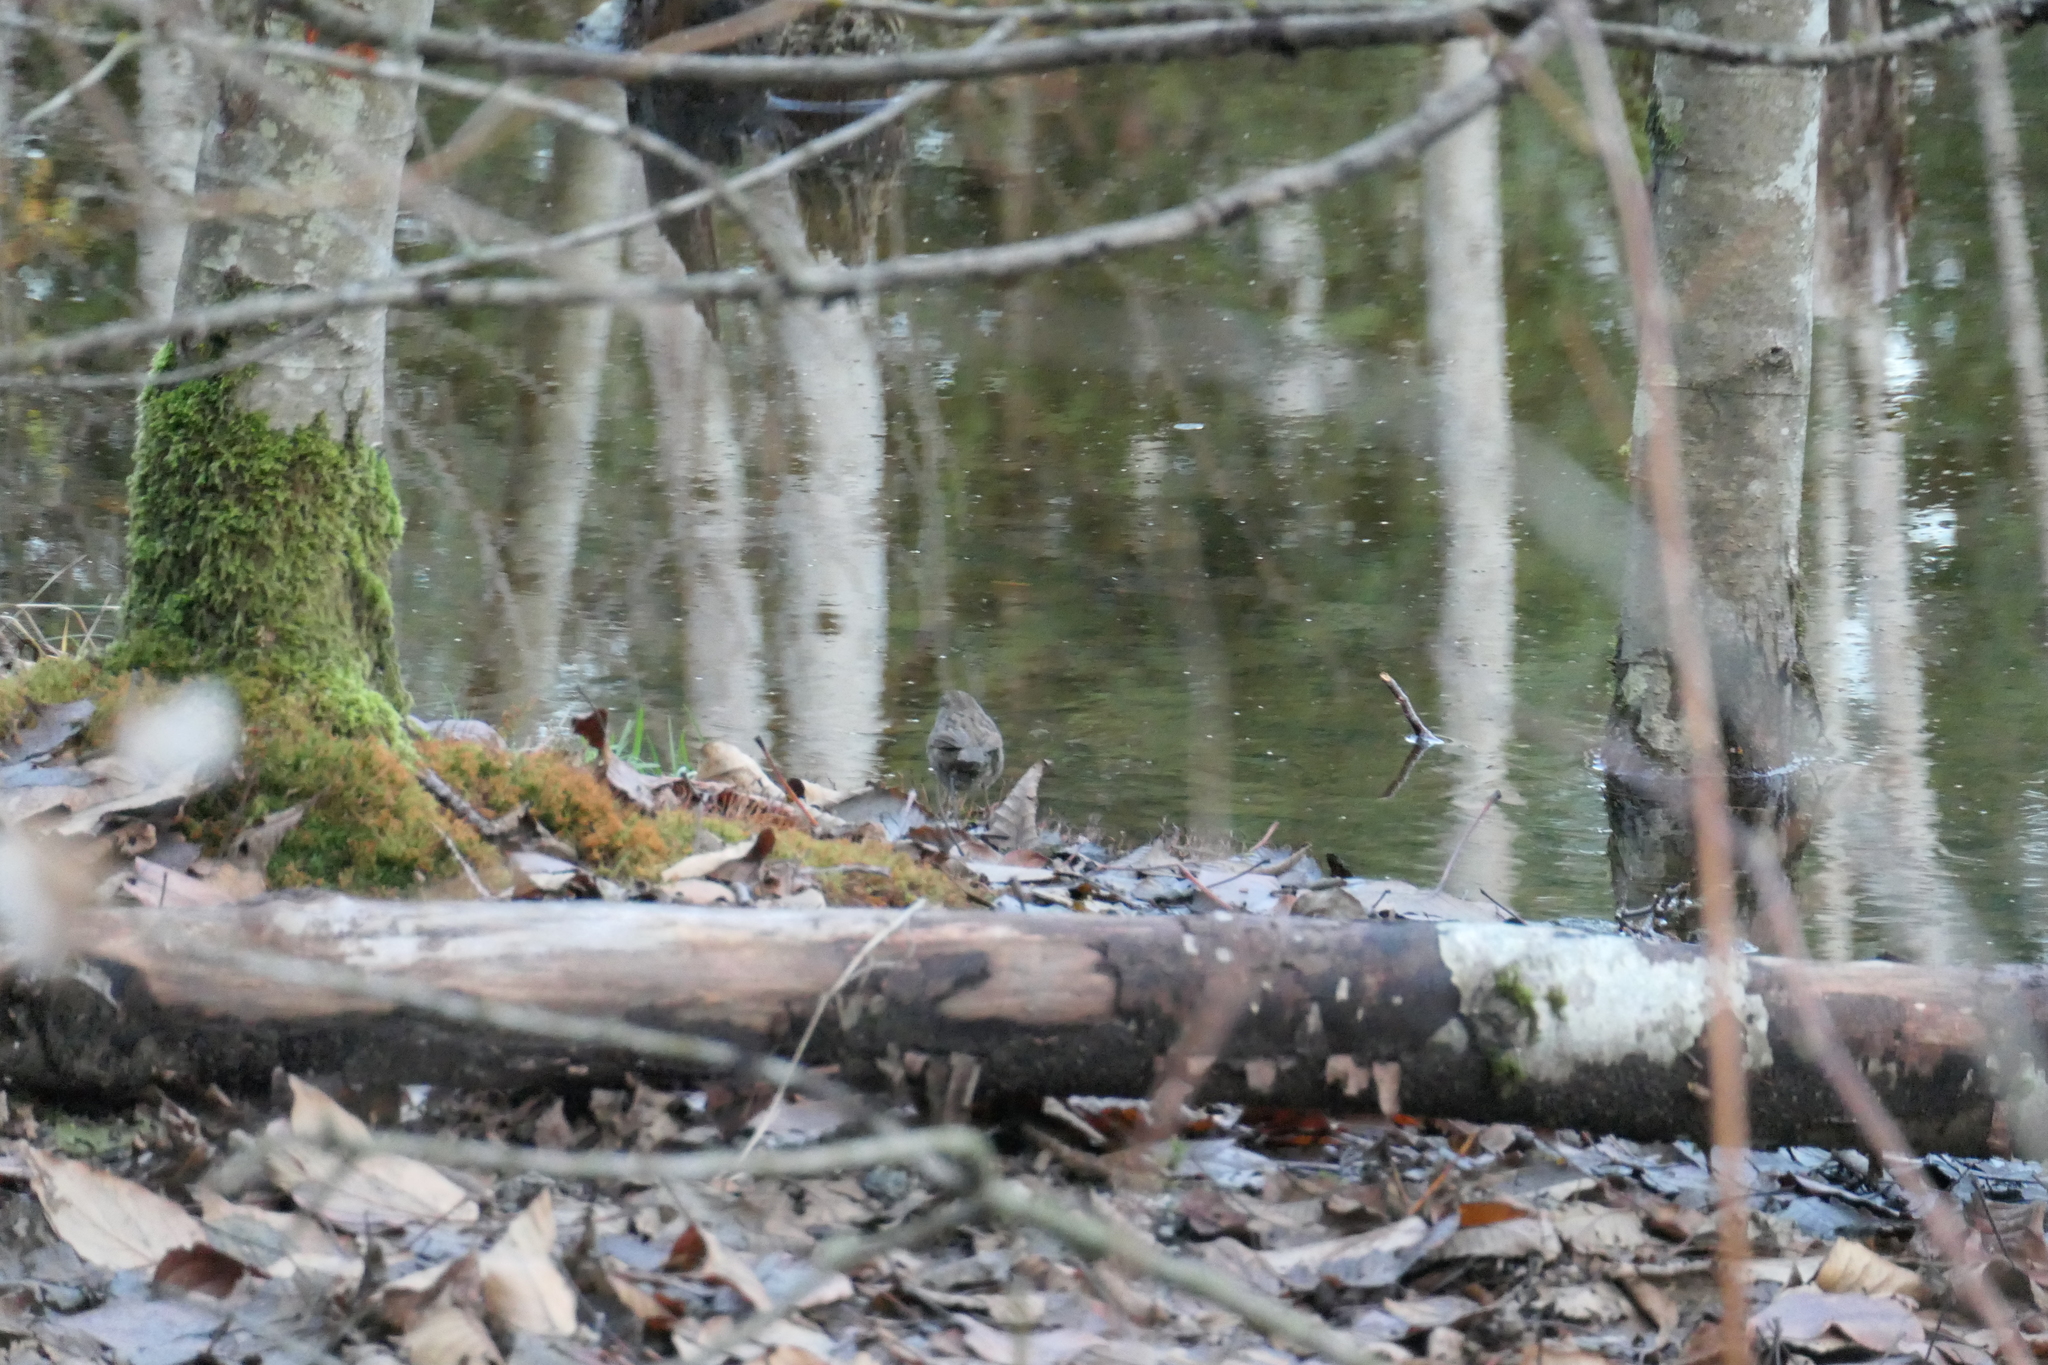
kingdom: Animalia
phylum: Chordata
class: Aves
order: Passeriformes
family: Passerellidae
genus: Melospiza
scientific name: Melospiza melodia
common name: Song sparrow
